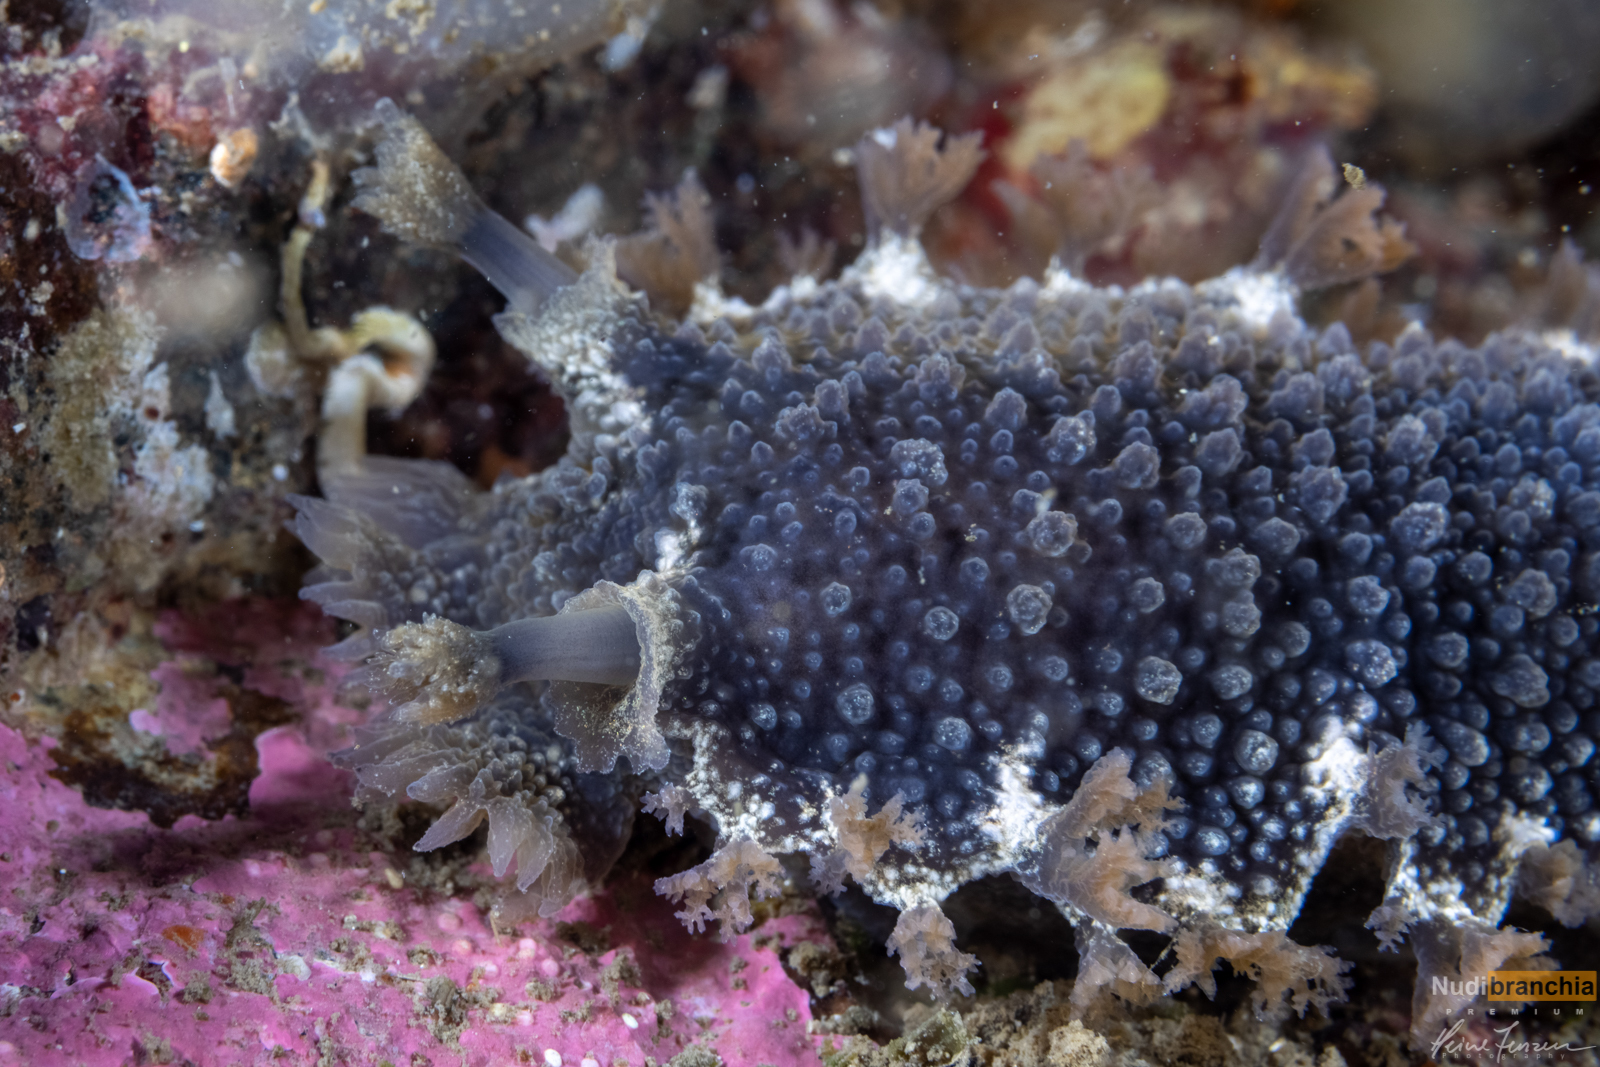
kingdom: Animalia
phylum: Mollusca
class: Gastropoda
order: Nudibranchia
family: Tritoniidae
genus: Tritonia
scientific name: Tritonia hombergii
